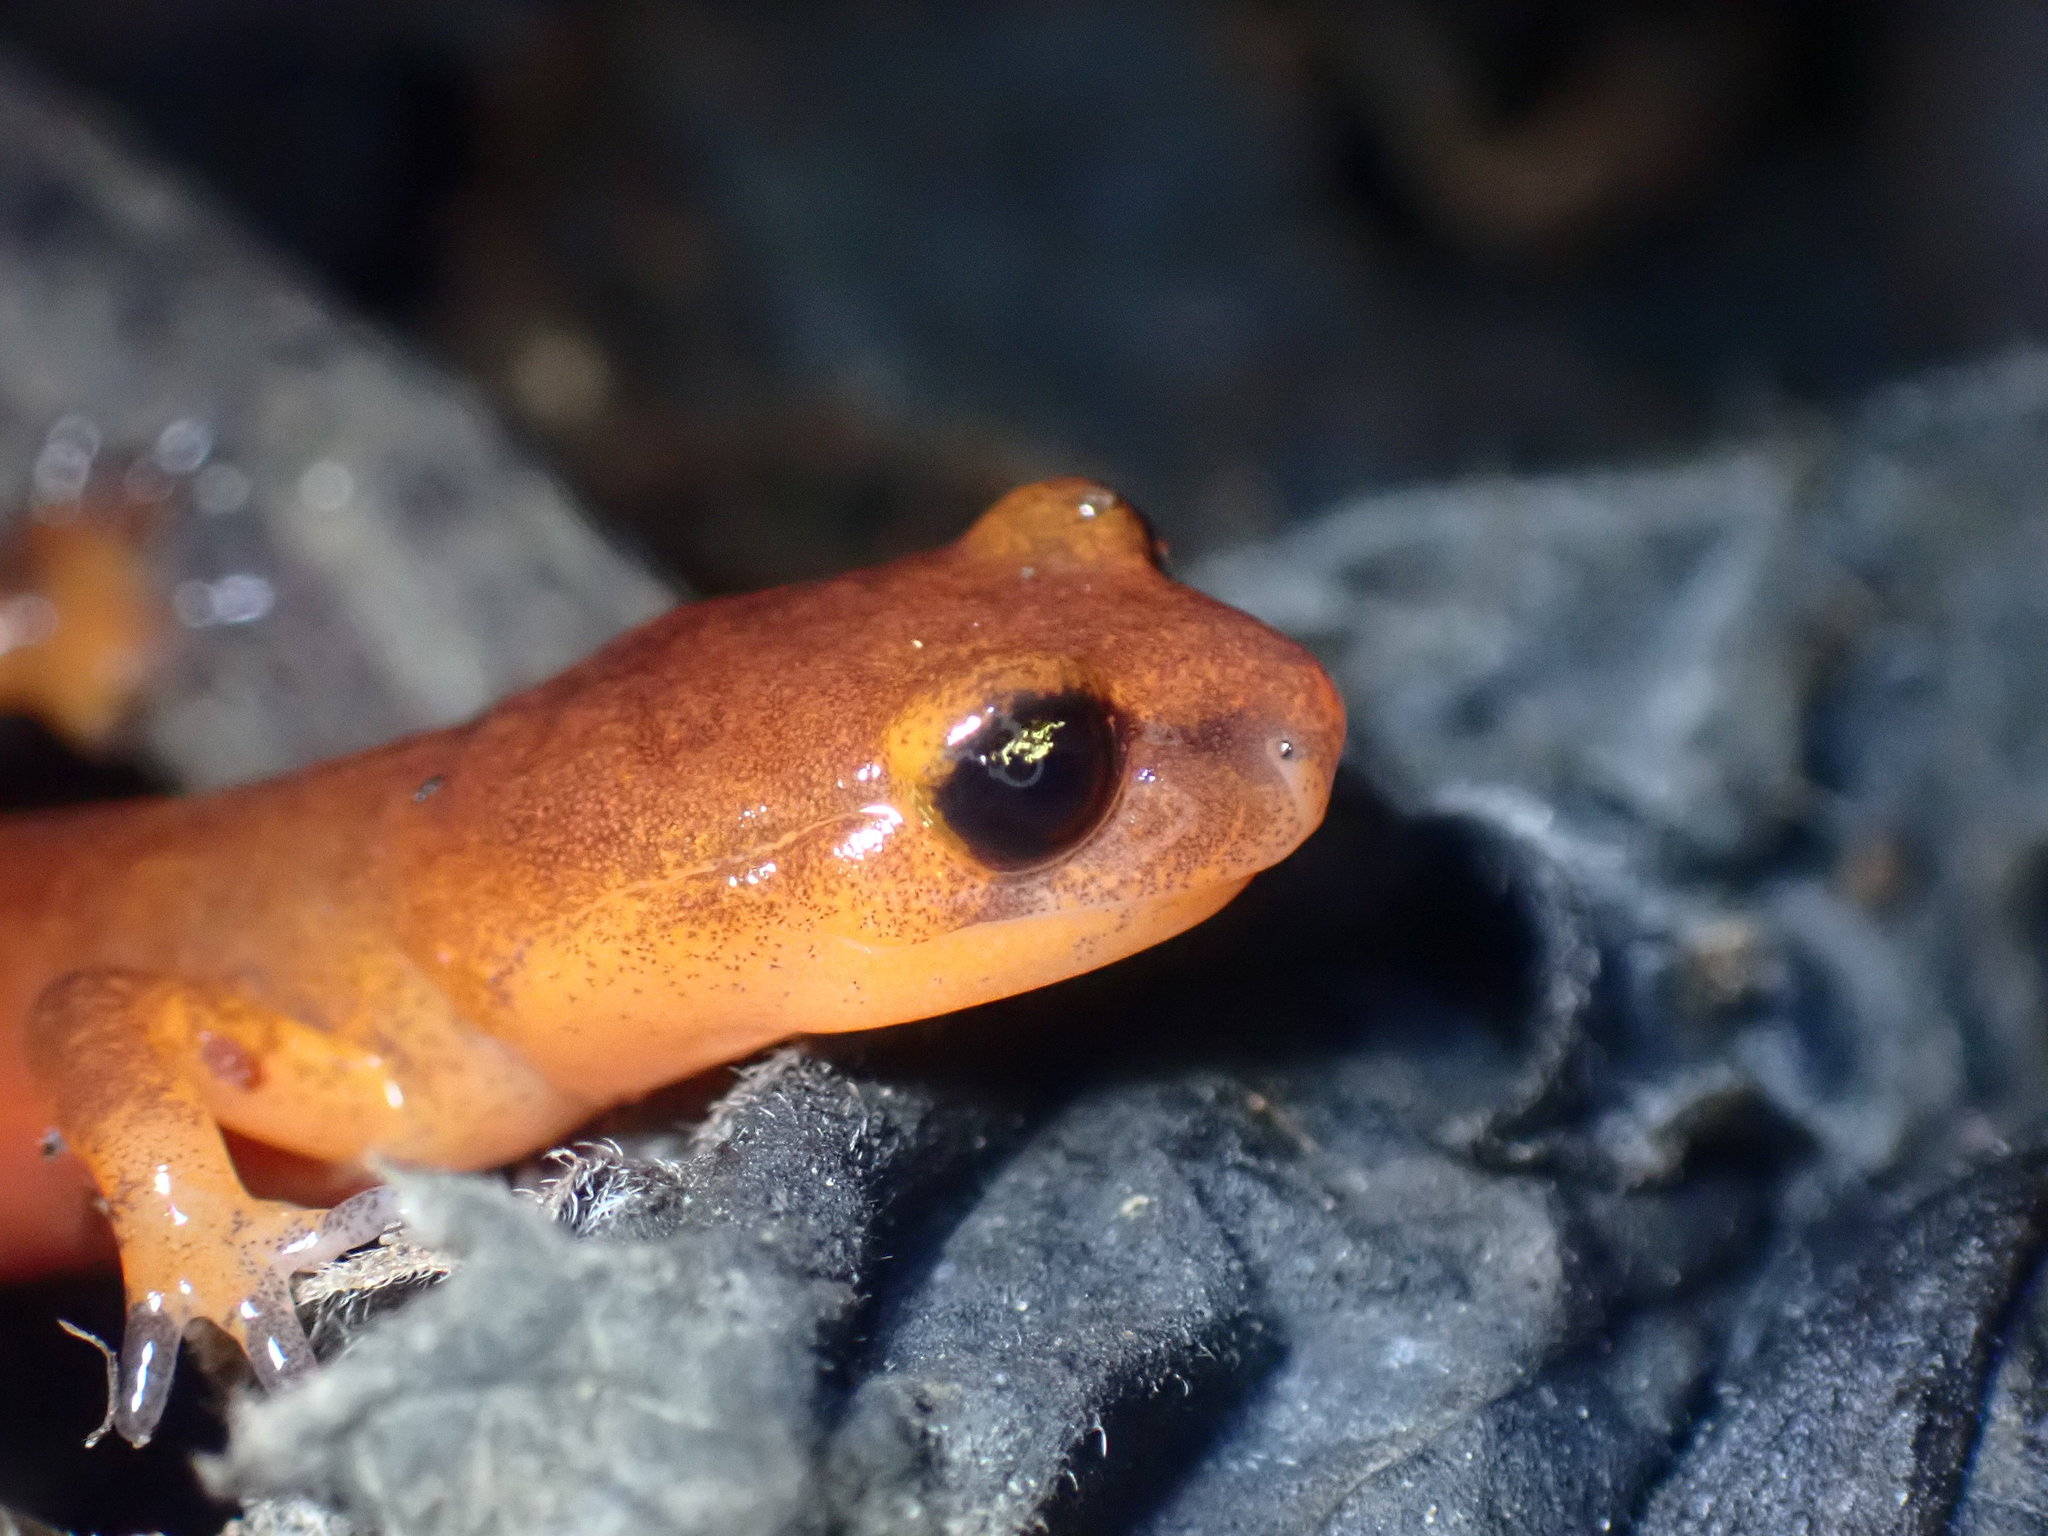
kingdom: Animalia
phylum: Chordata
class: Amphibia
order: Caudata
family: Plethodontidae
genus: Ensatina
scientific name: Ensatina eschscholtzii
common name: Ensatina
